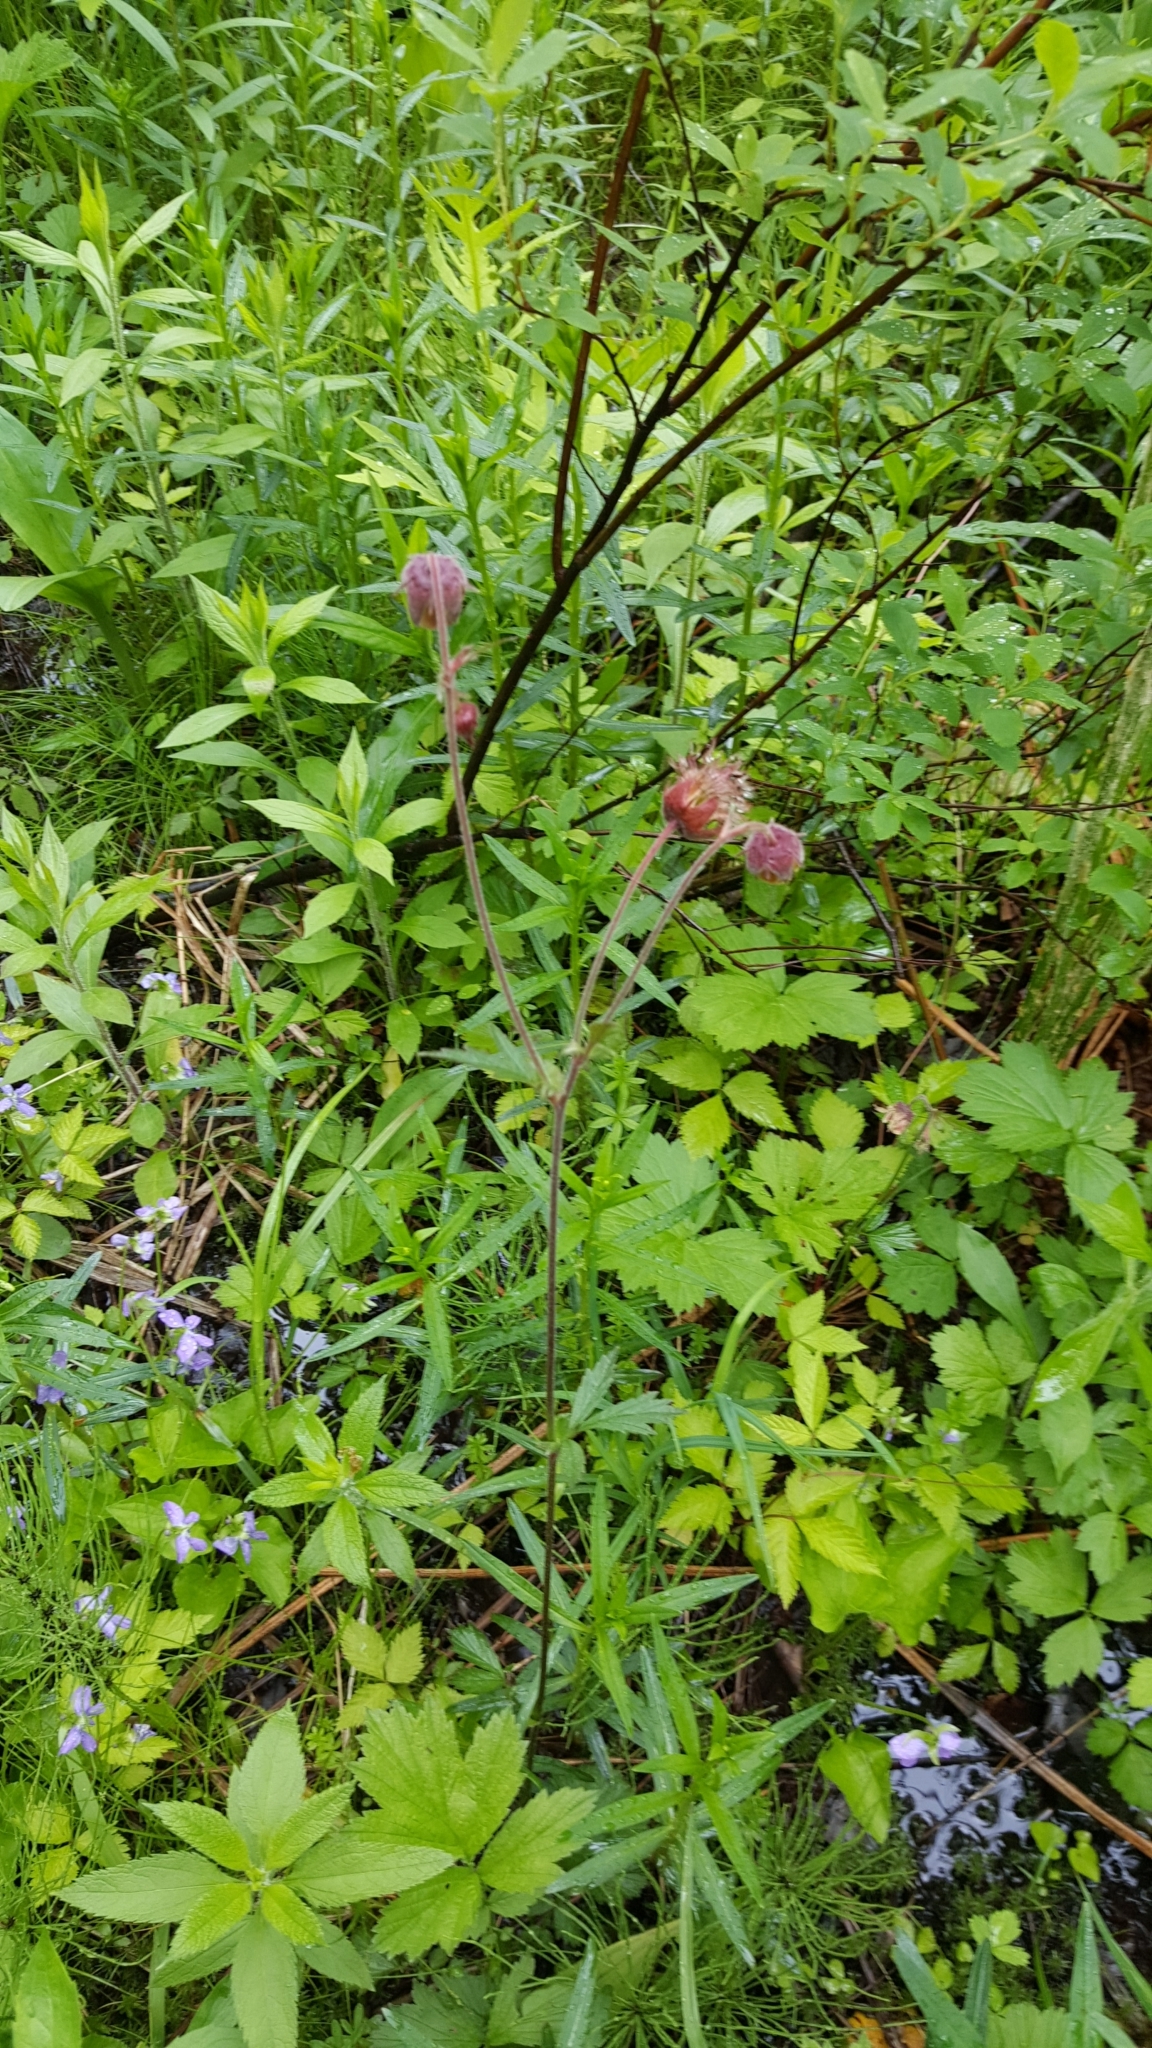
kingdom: Plantae
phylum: Tracheophyta
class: Magnoliopsida
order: Rosales
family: Rosaceae
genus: Geum
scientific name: Geum rivale
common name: Water avens
